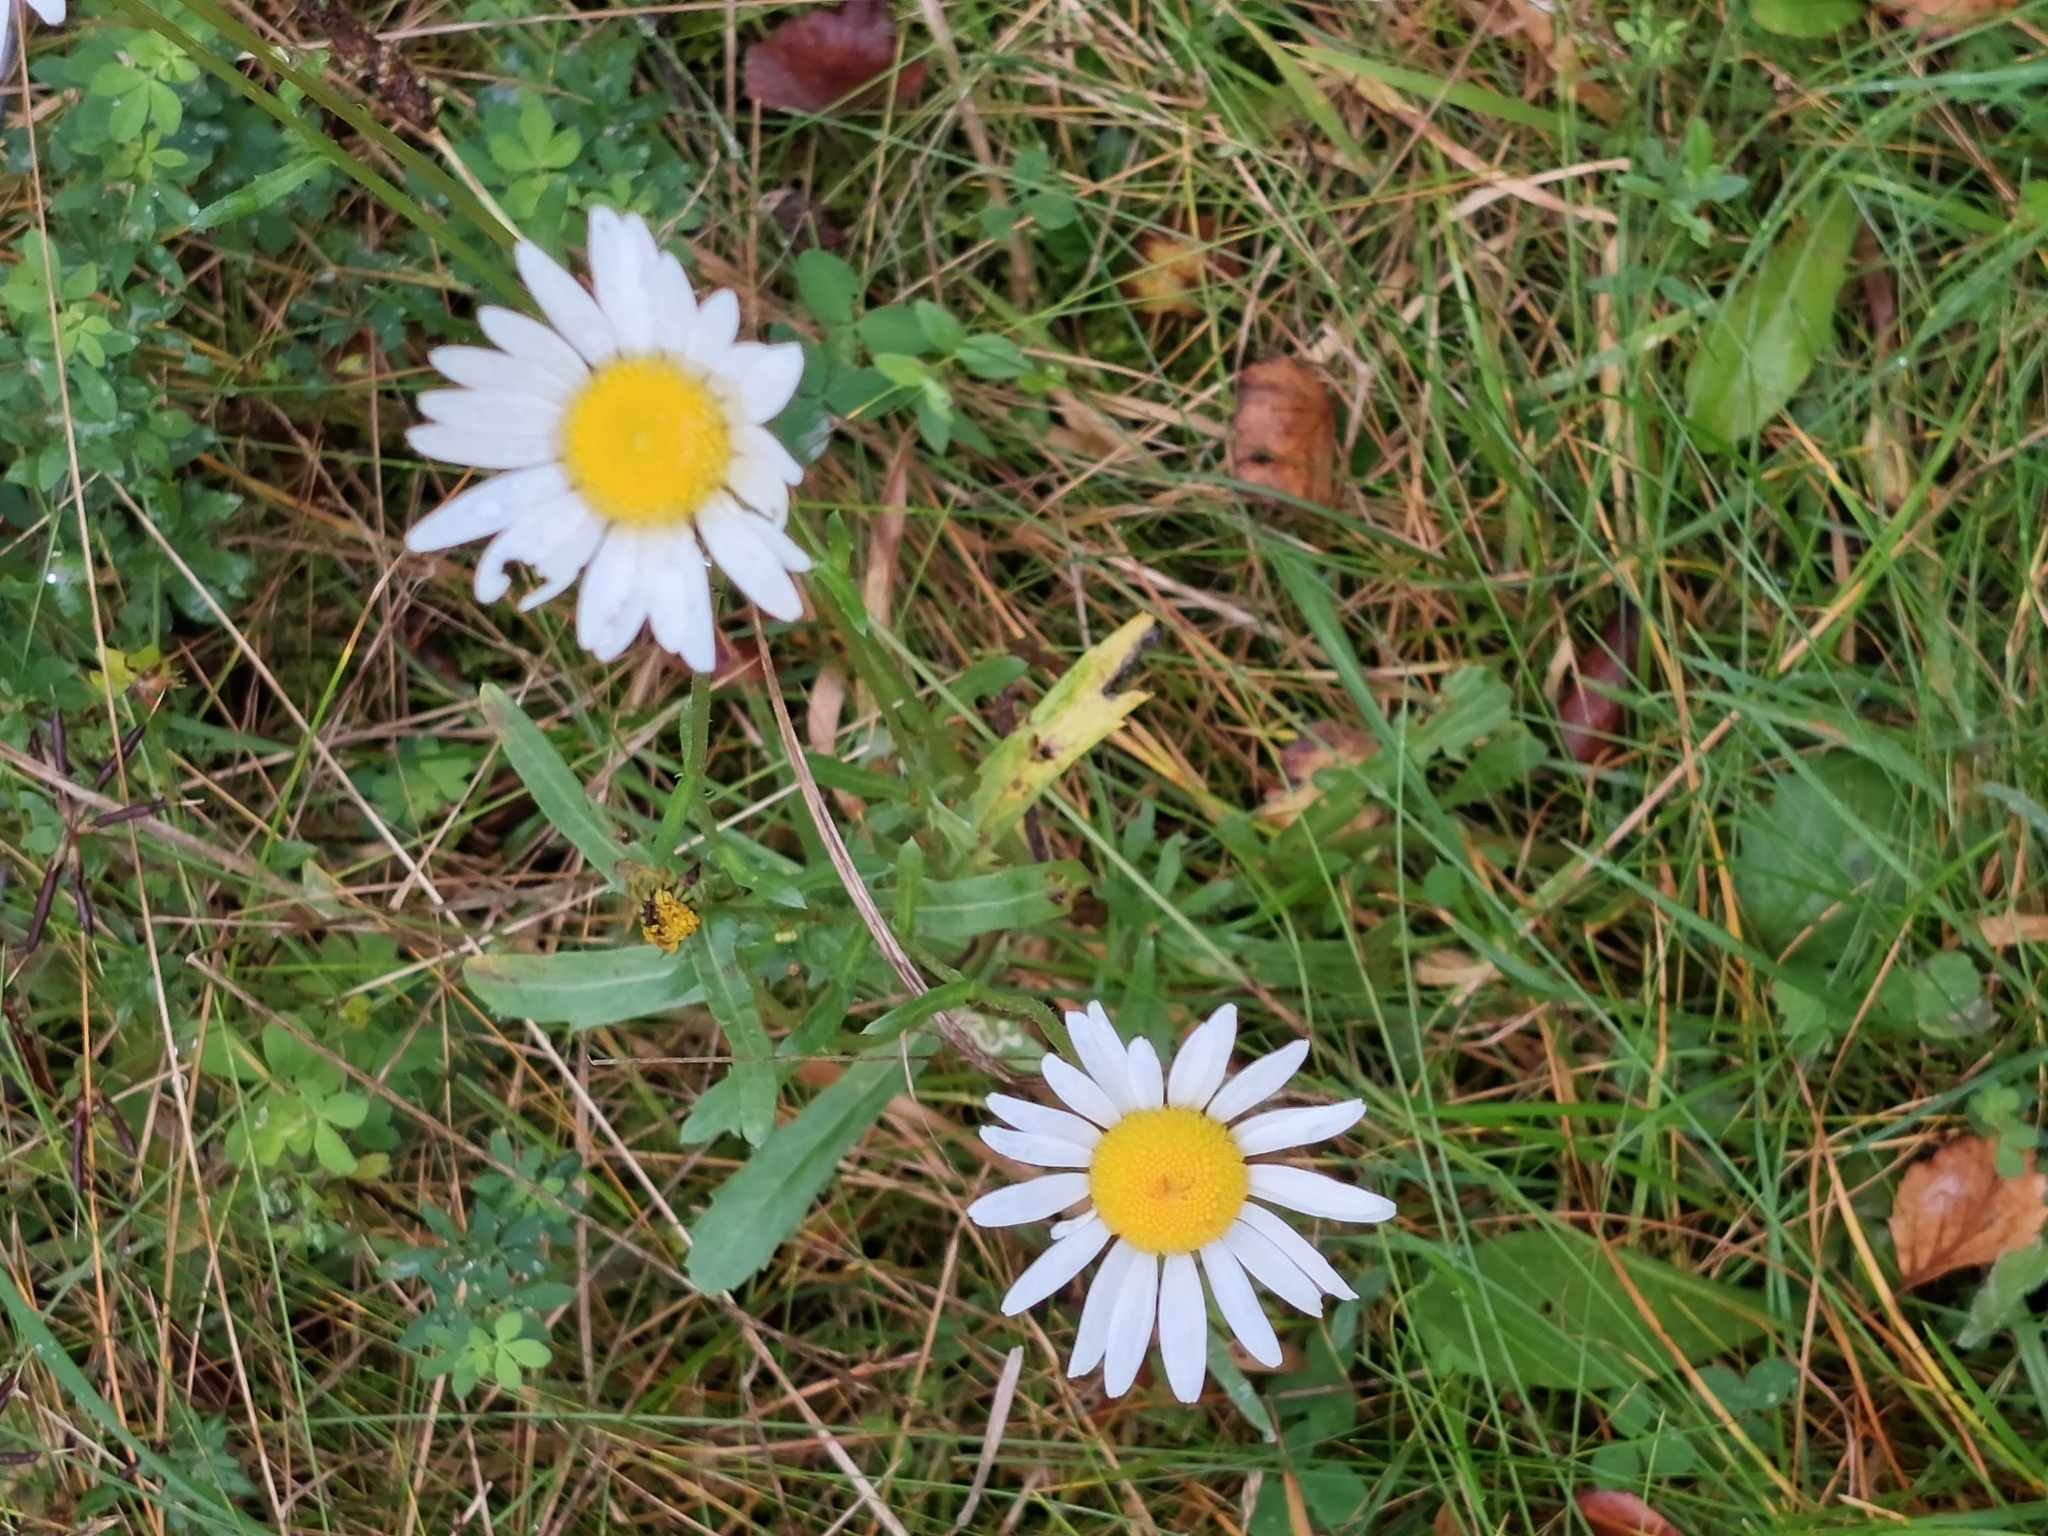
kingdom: Plantae
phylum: Tracheophyta
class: Magnoliopsida
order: Asterales
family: Asteraceae
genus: Leucanthemum
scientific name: Leucanthemum vulgare
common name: Oxeye daisy
